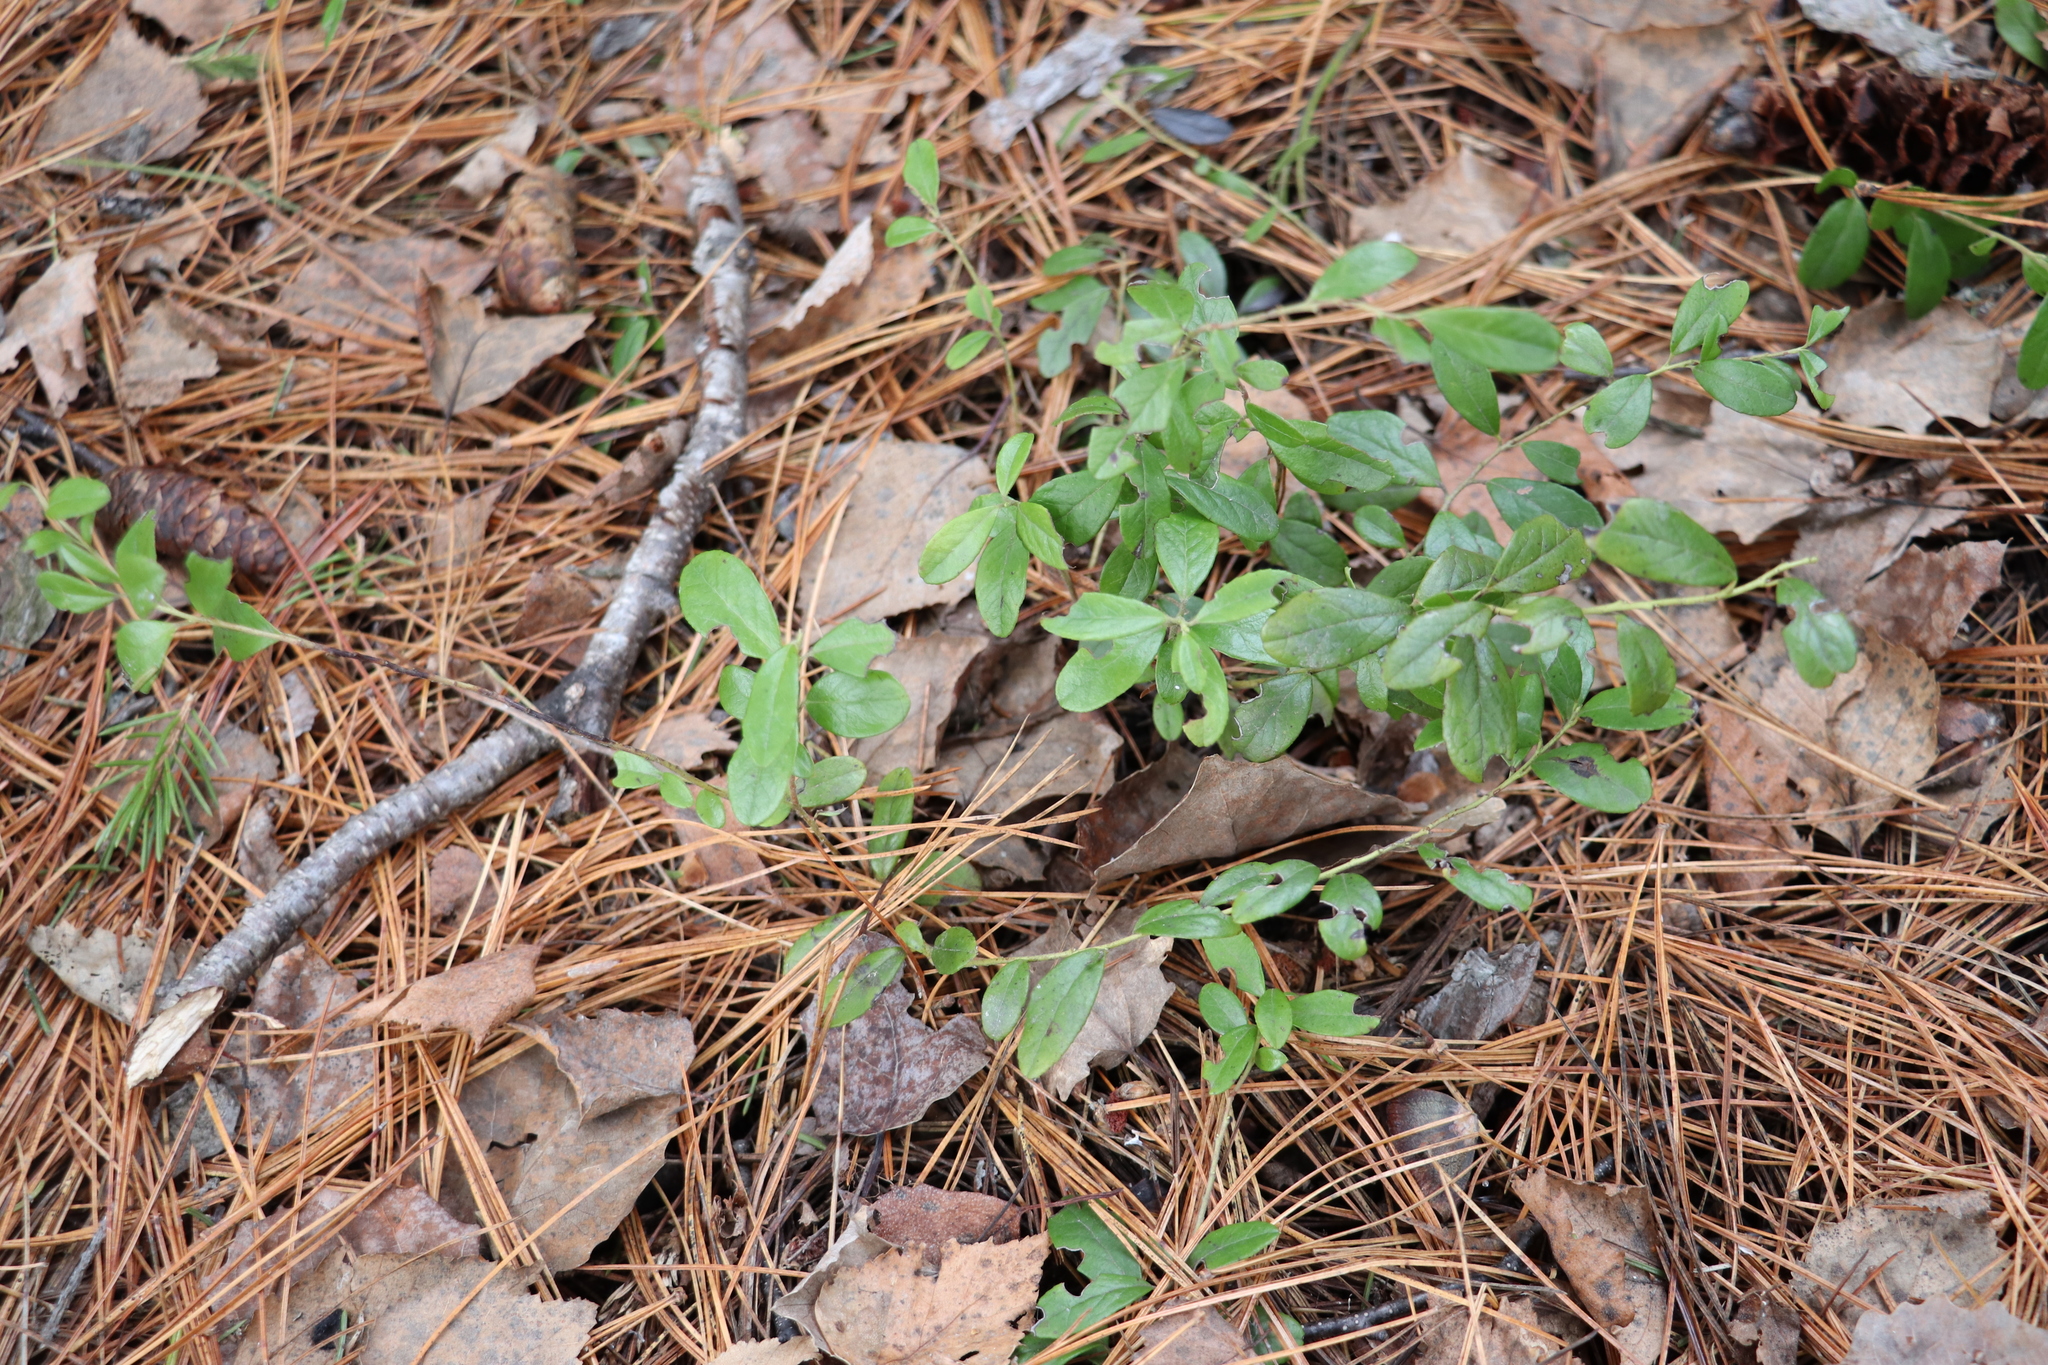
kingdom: Plantae
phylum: Tracheophyta
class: Magnoliopsida
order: Ericales
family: Ericaceae
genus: Vaccinium
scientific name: Vaccinium vitis-idaea
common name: Cowberry
